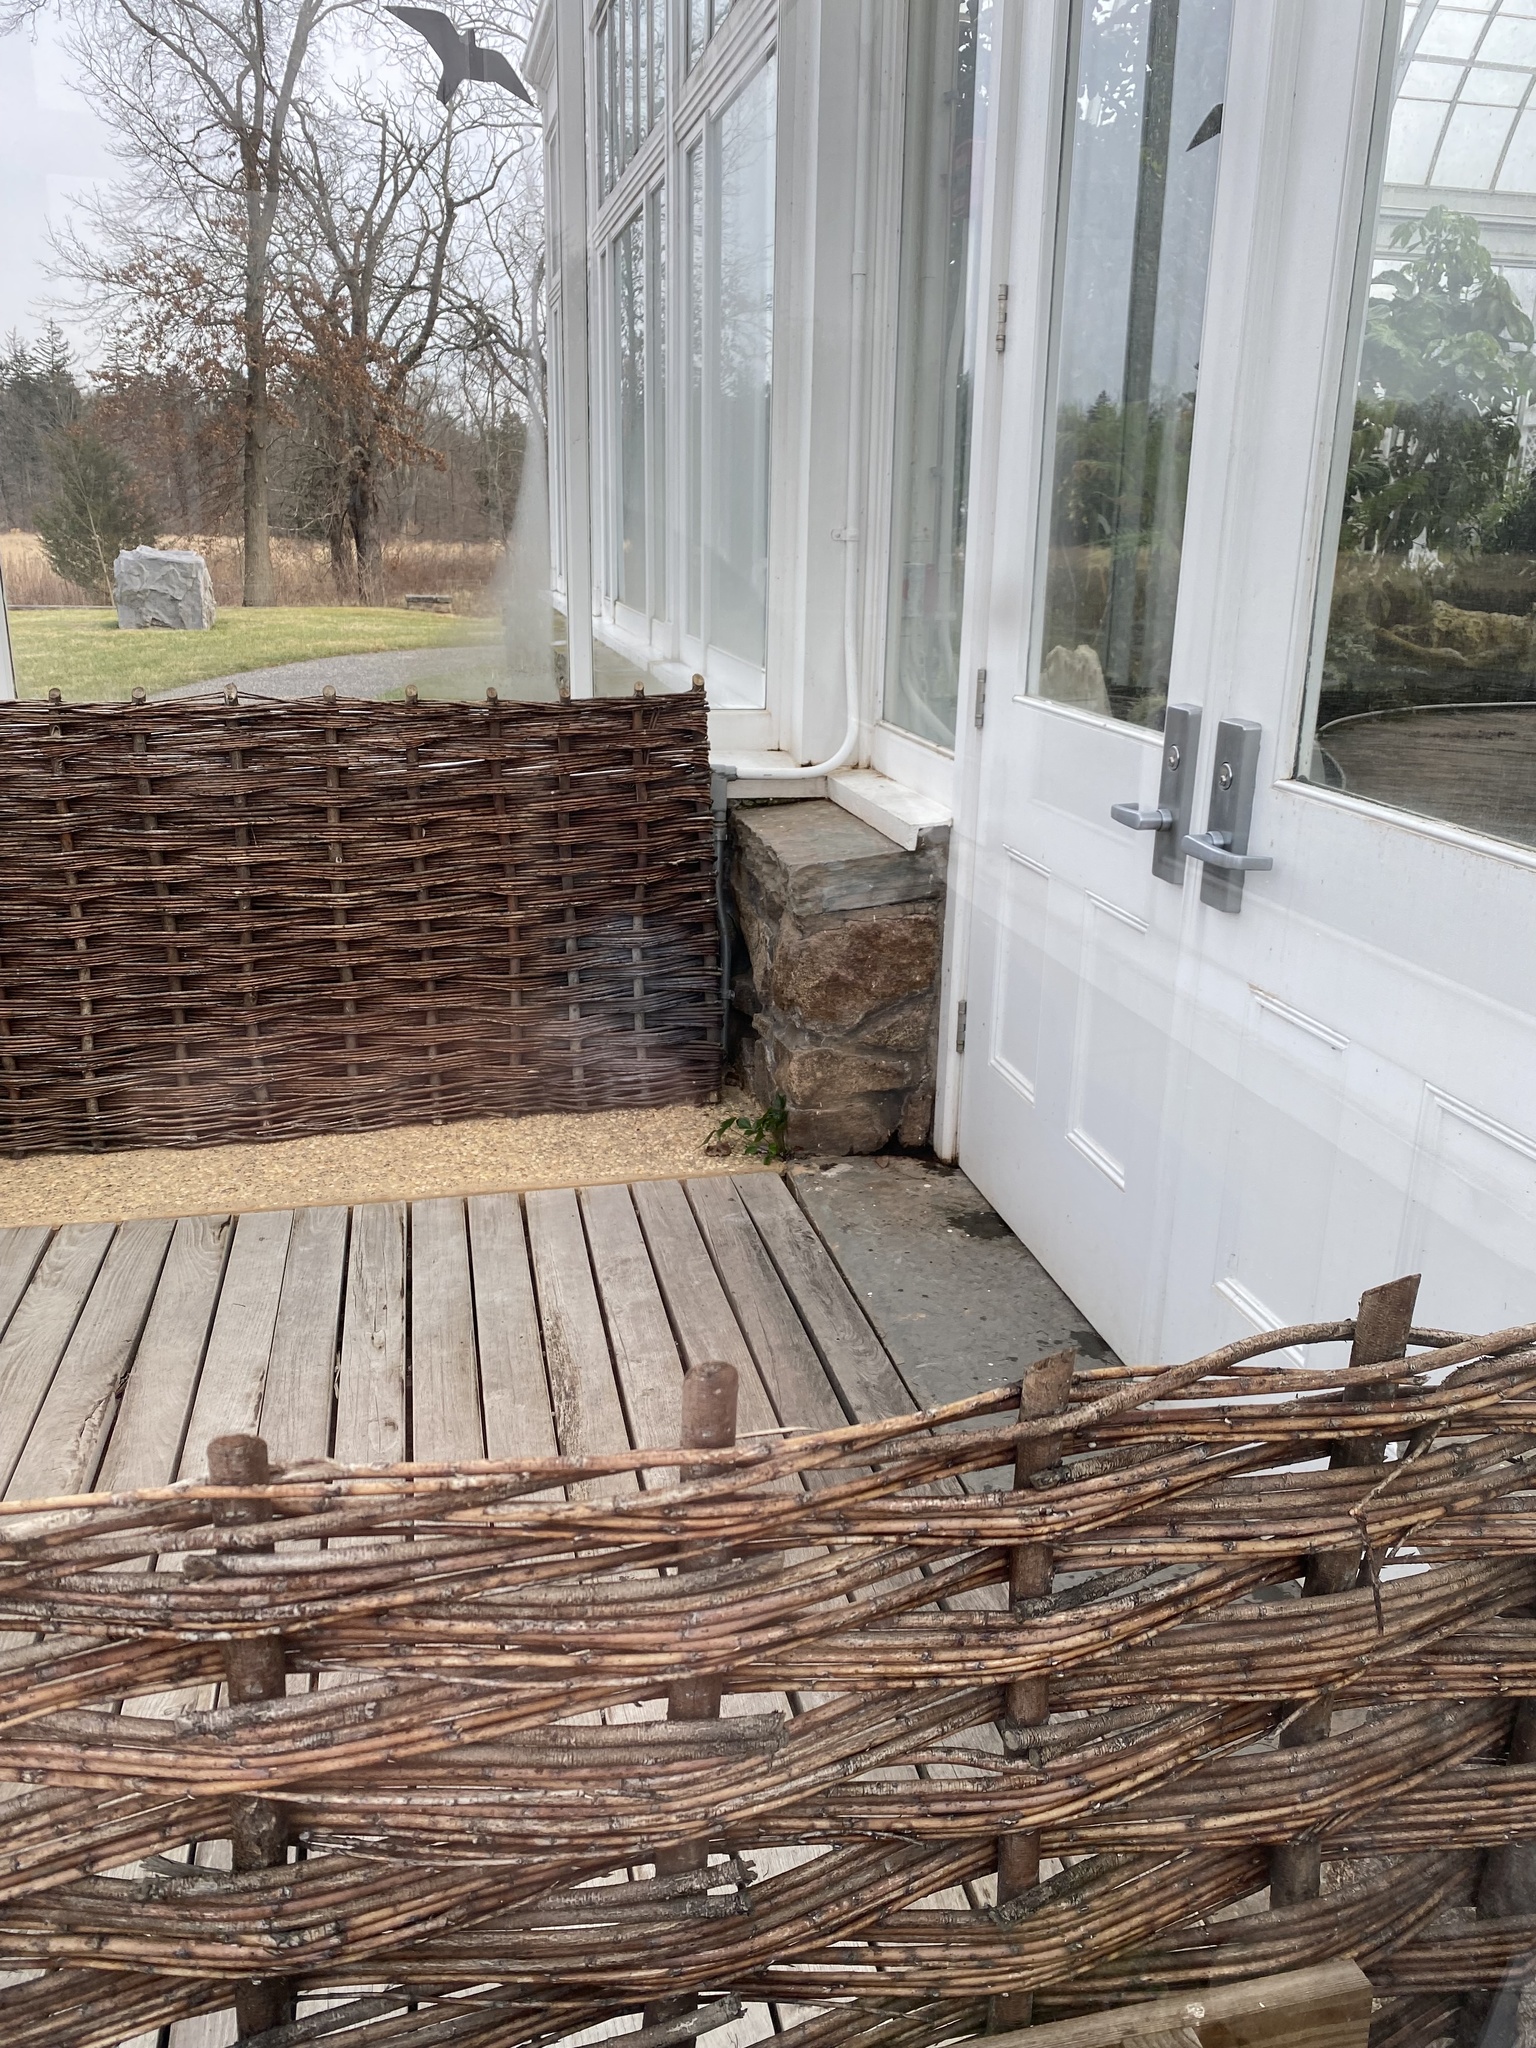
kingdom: Plantae
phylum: Tracheophyta
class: Polypodiopsida
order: Polypodiales
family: Dryopteridaceae
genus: Cyrtomium
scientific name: Cyrtomium falcatum
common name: House holly-fern
